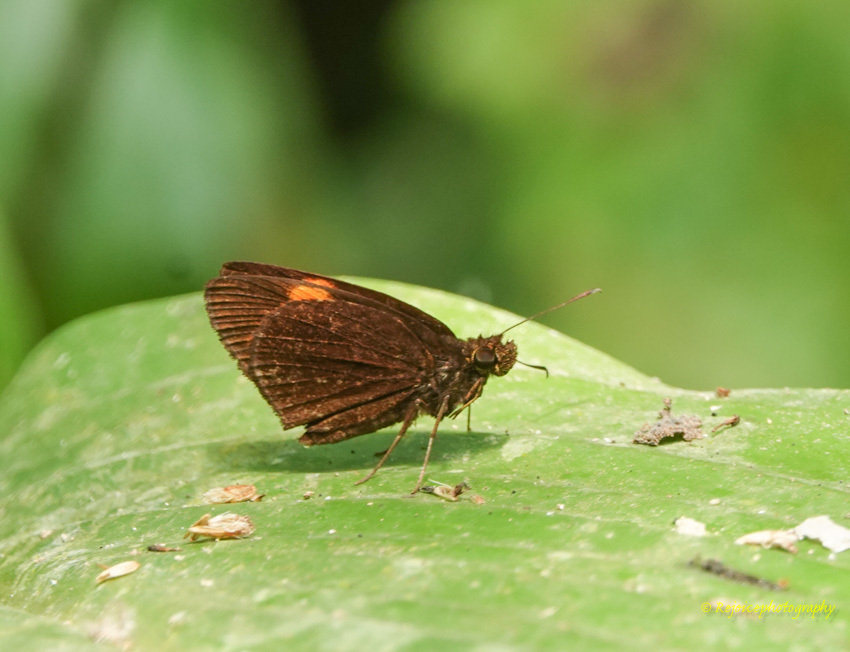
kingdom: Animalia
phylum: Arthropoda
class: Insecta
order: Lepidoptera
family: Hesperiidae
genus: Koruthaialos
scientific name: Koruthaialos sindu
